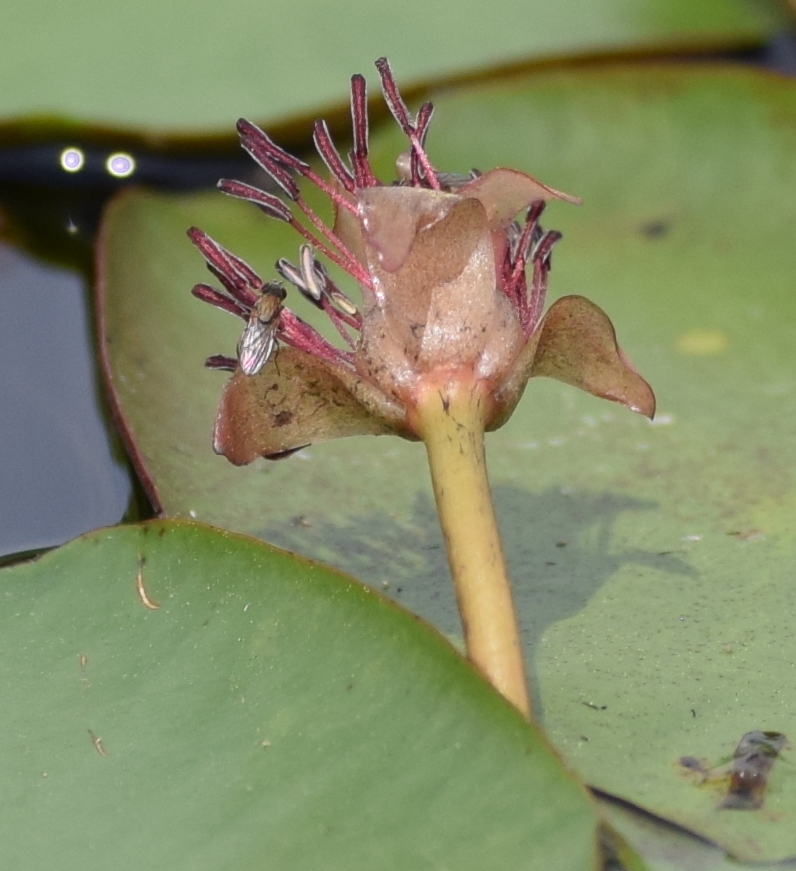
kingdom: Plantae
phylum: Tracheophyta
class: Magnoliopsida
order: Nymphaeales
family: Cabombaceae
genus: Brasenia
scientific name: Brasenia schreberi
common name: Water-shield
